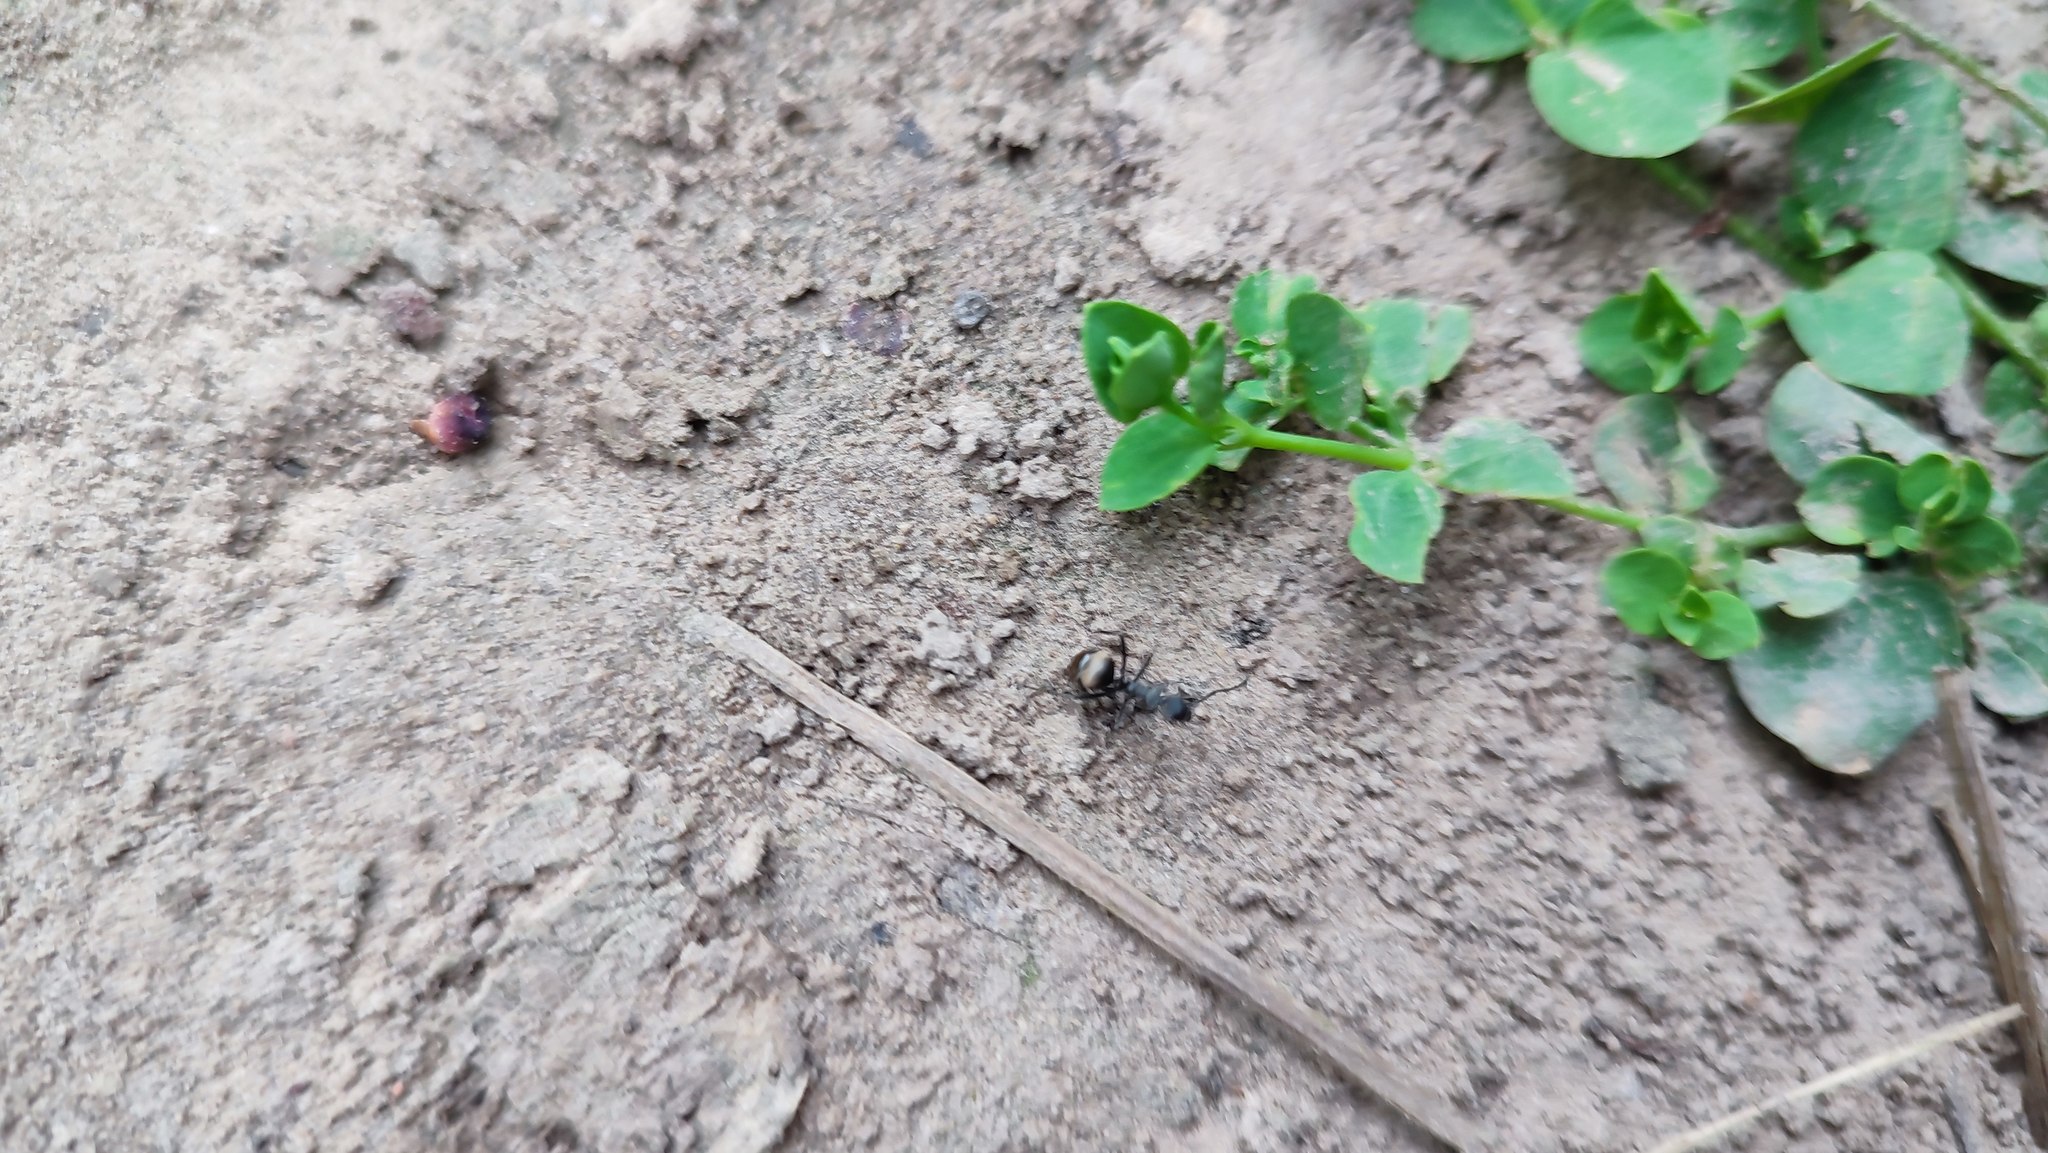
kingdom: Animalia
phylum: Arthropoda
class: Insecta
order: Hymenoptera
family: Formicidae
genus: Polyrhachis
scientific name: Polyrhachis dives
